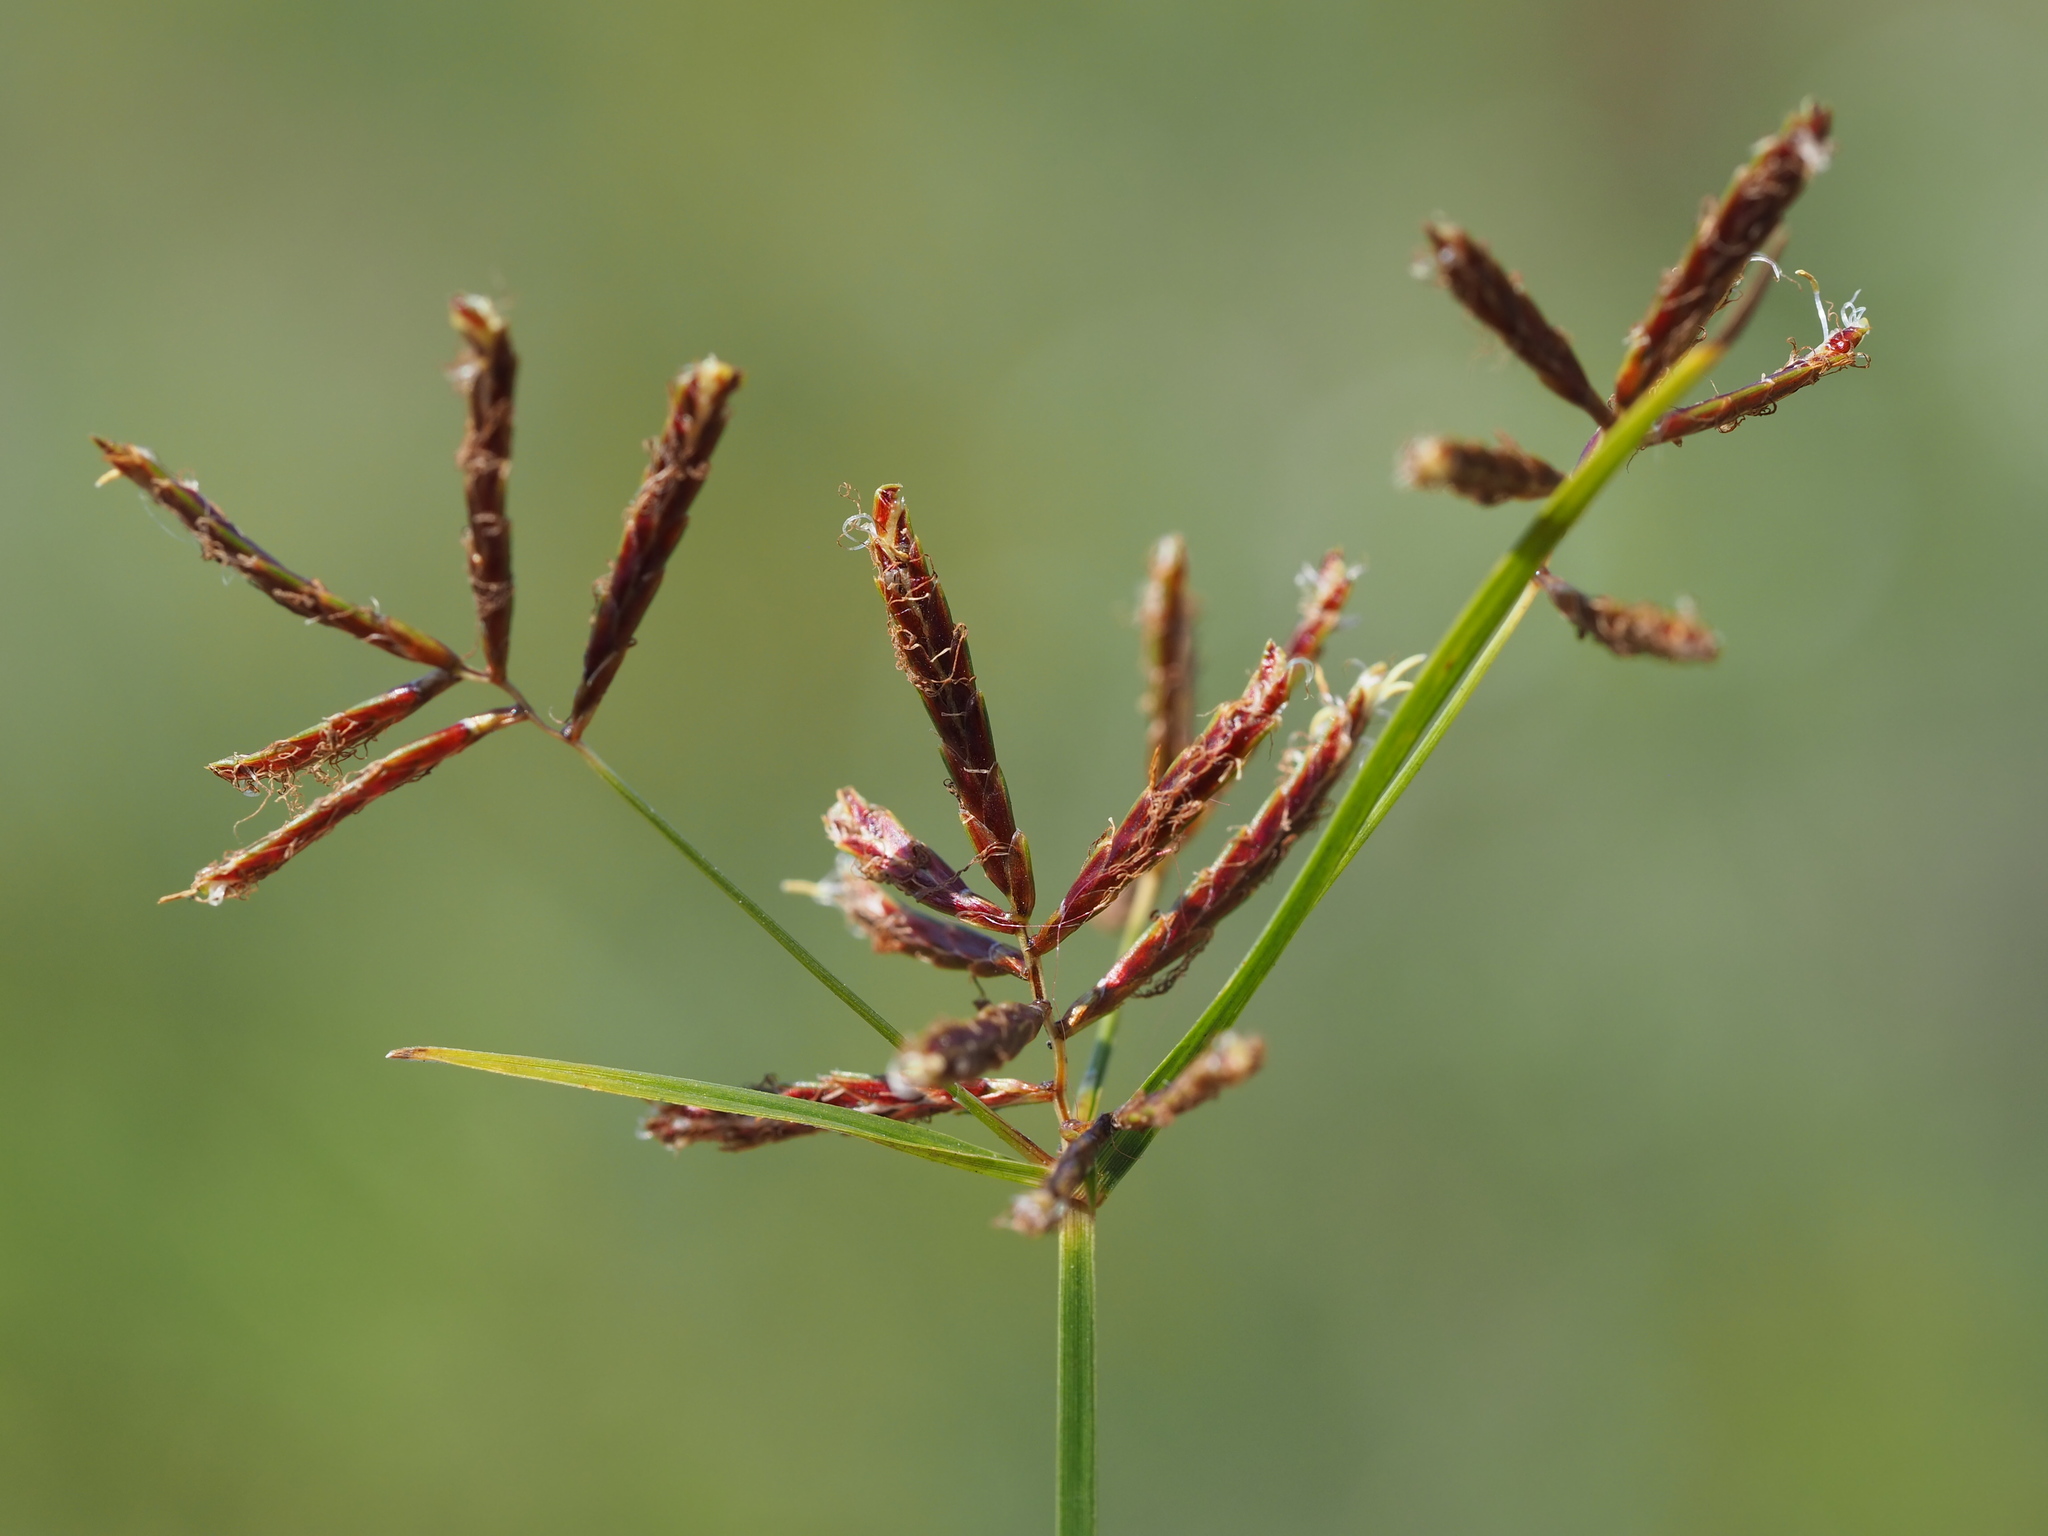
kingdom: Plantae
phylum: Tracheophyta
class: Liliopsida
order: Poales
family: Cyperaceae
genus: Cyperus
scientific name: Cyperus rotundus
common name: Nutgrass
